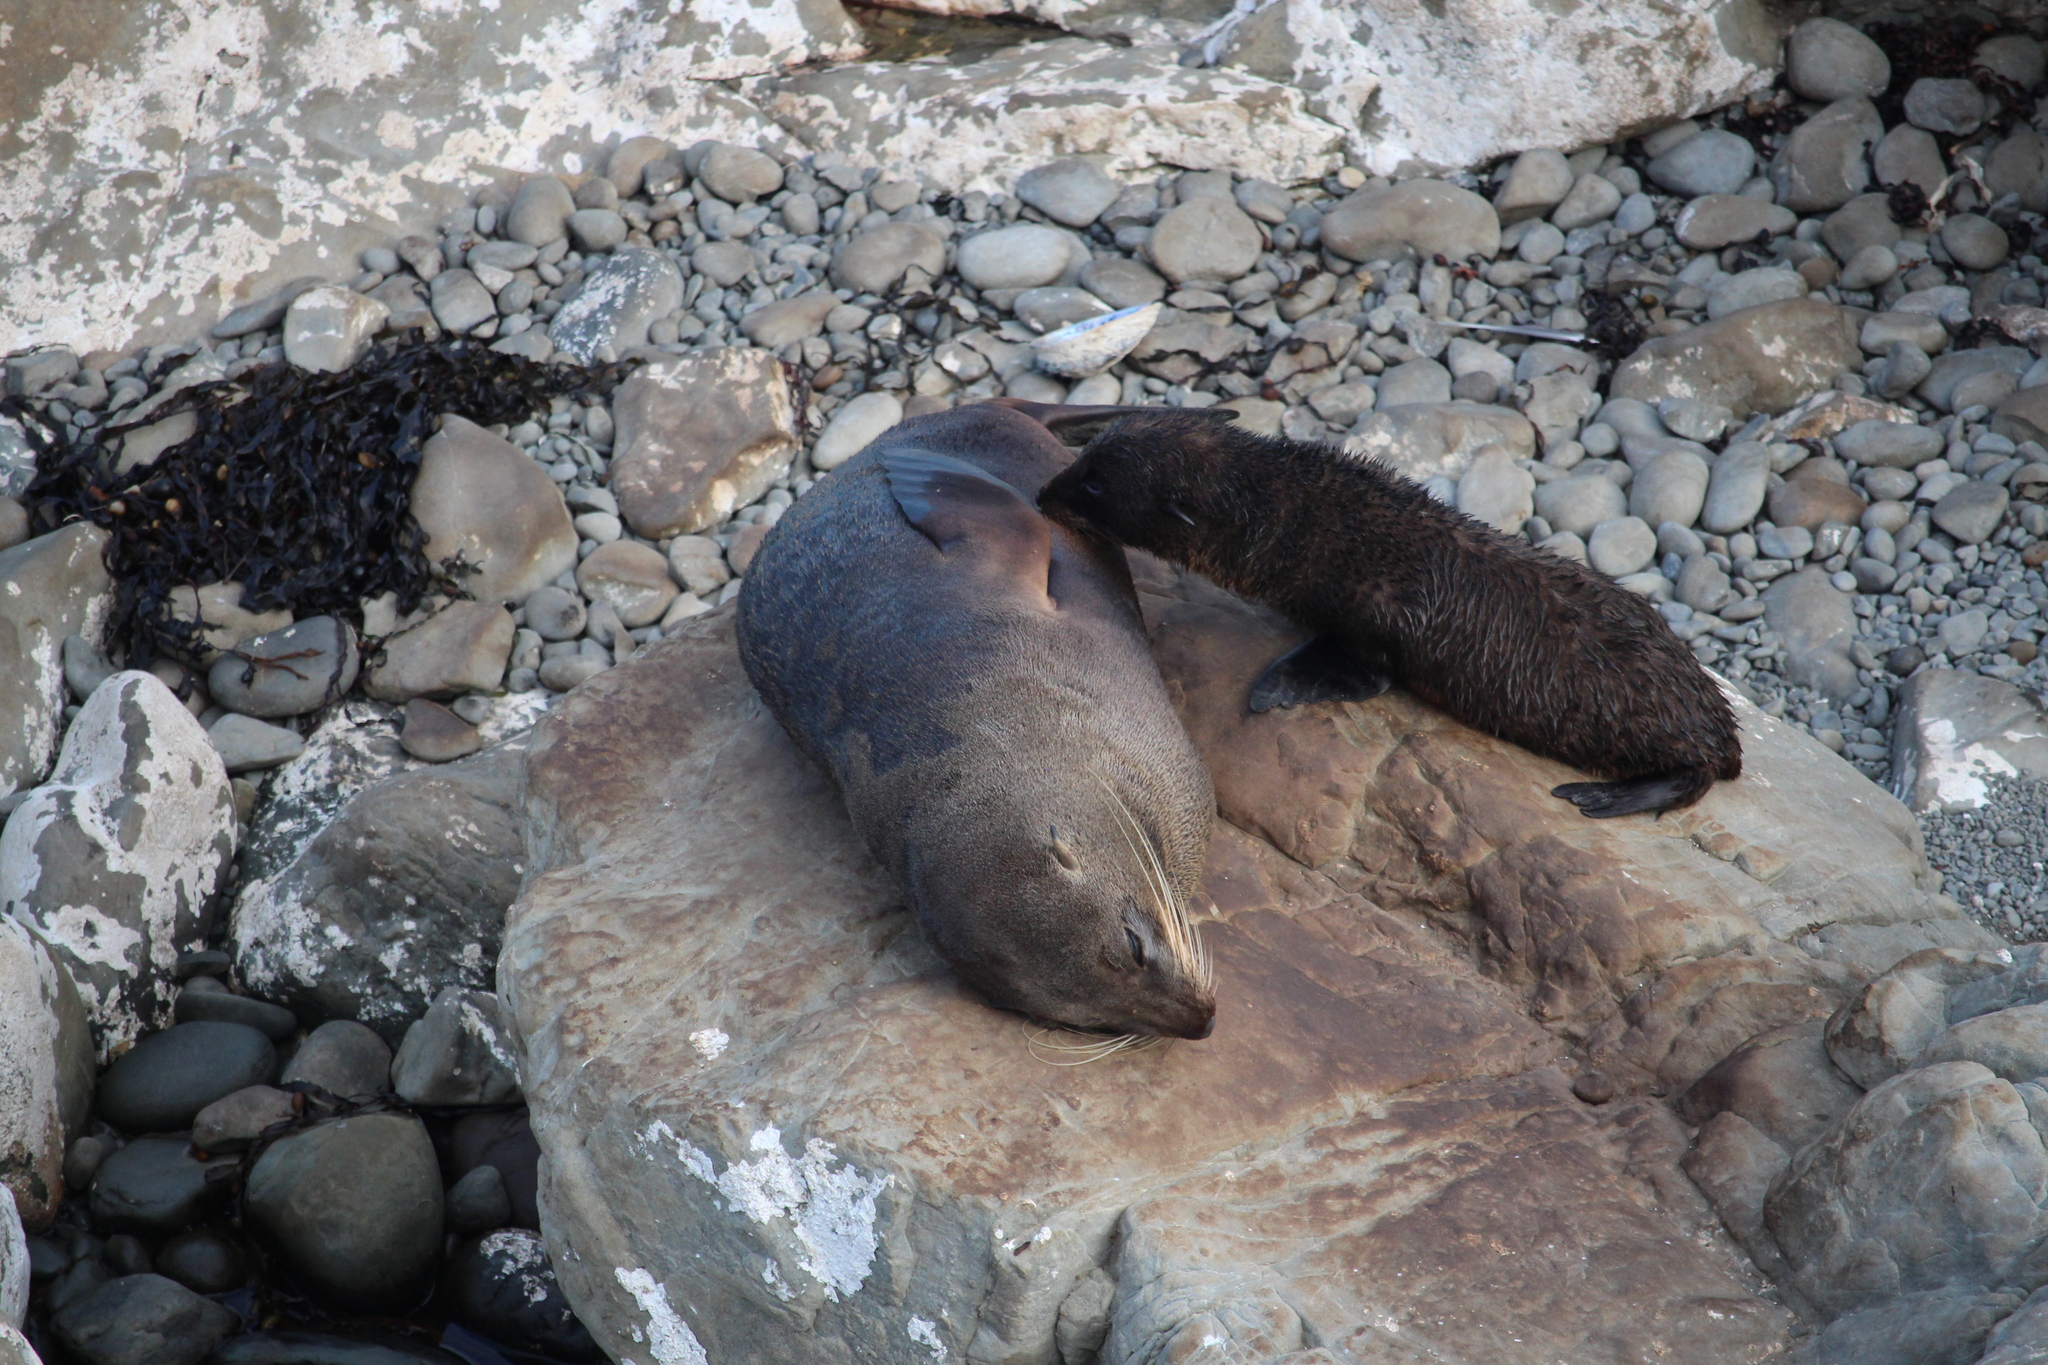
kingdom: Animalia
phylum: Chordata
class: Mammalia
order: Carnivora
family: Otariidae
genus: Arctocephalus
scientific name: Arctocephalus forsteri
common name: New zealand fur seal
